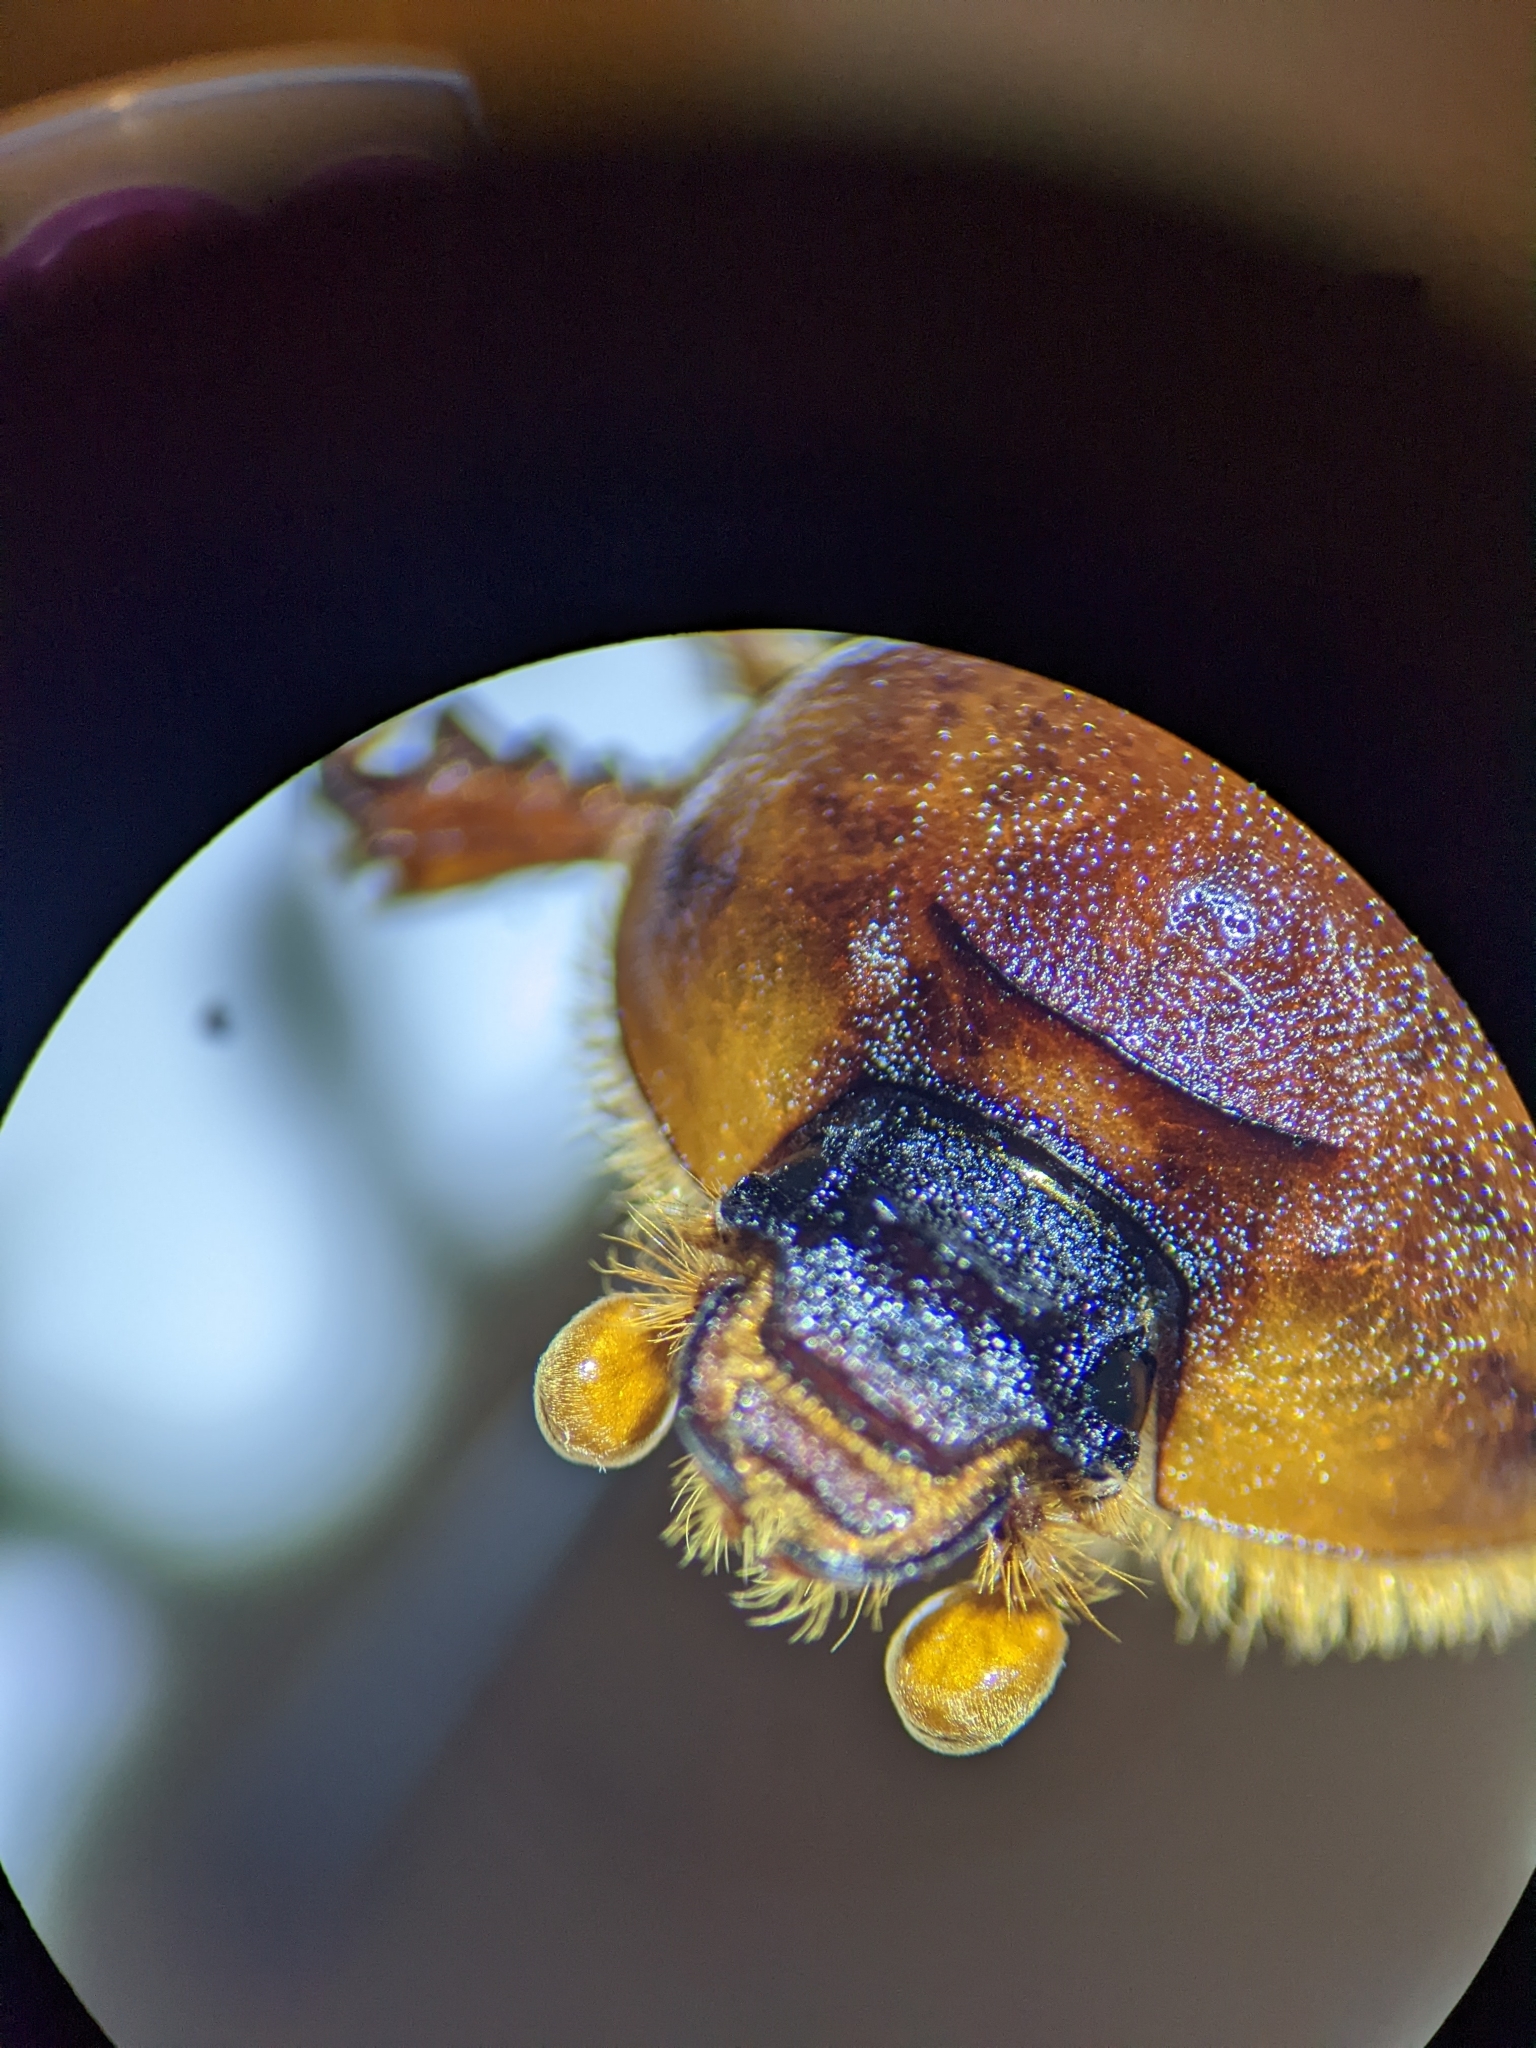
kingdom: Animalia
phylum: Arthropoda
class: Insecta
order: Coleoptera
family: Geotrupidae
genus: Bolbocerosoma
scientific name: Bolbocerosoma bruneri
